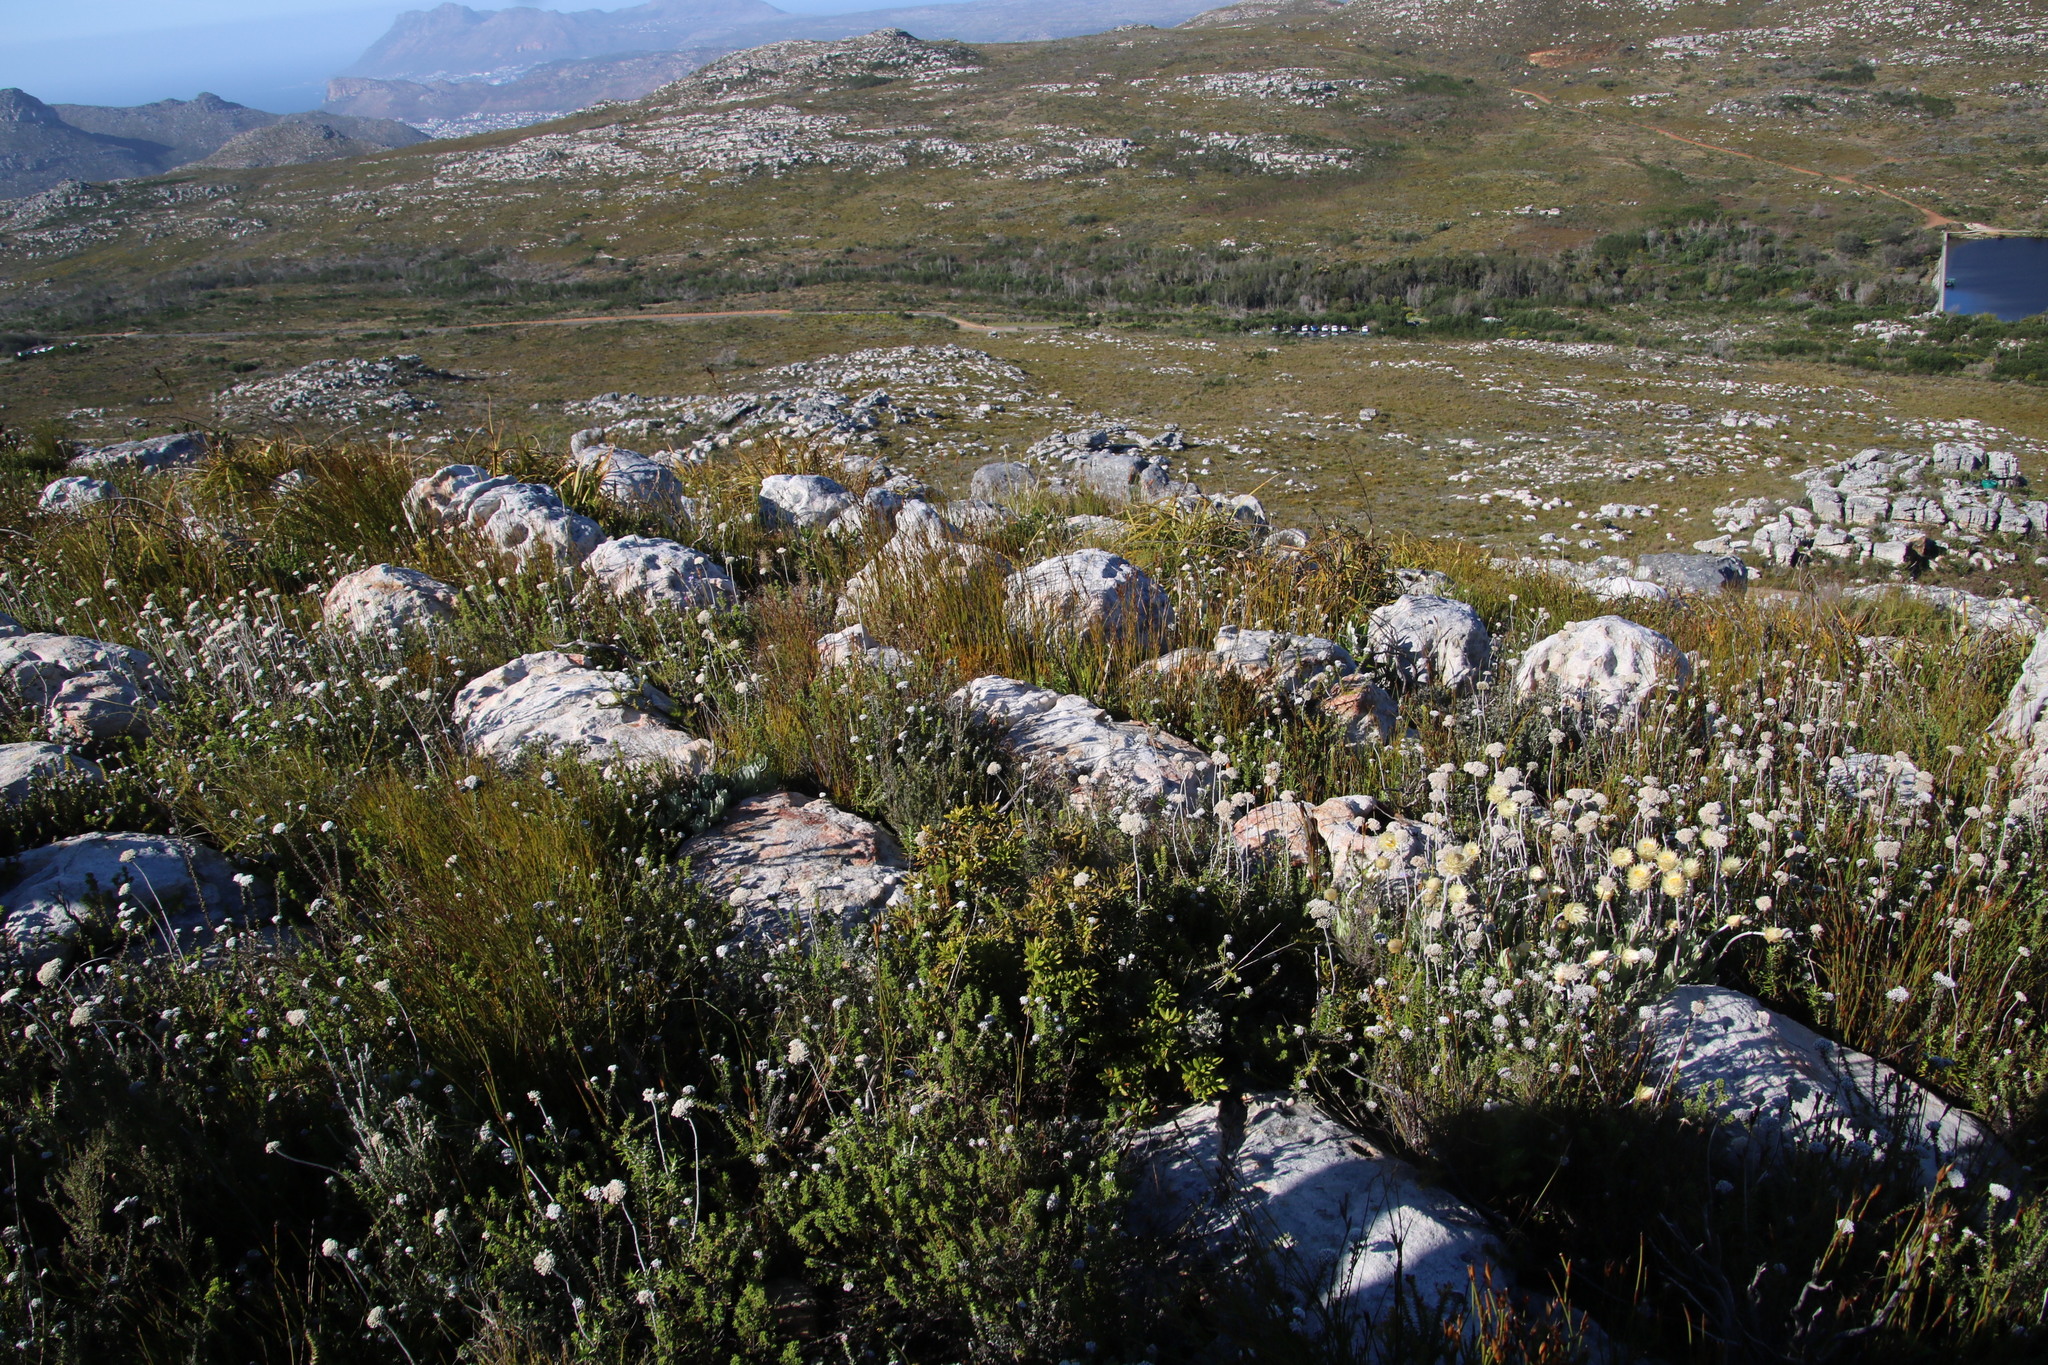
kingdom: Plantae
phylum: Tracheophyta
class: Magnoliopsida
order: Fagales
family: Myricaceae
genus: Morella
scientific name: Morella kraussiana
